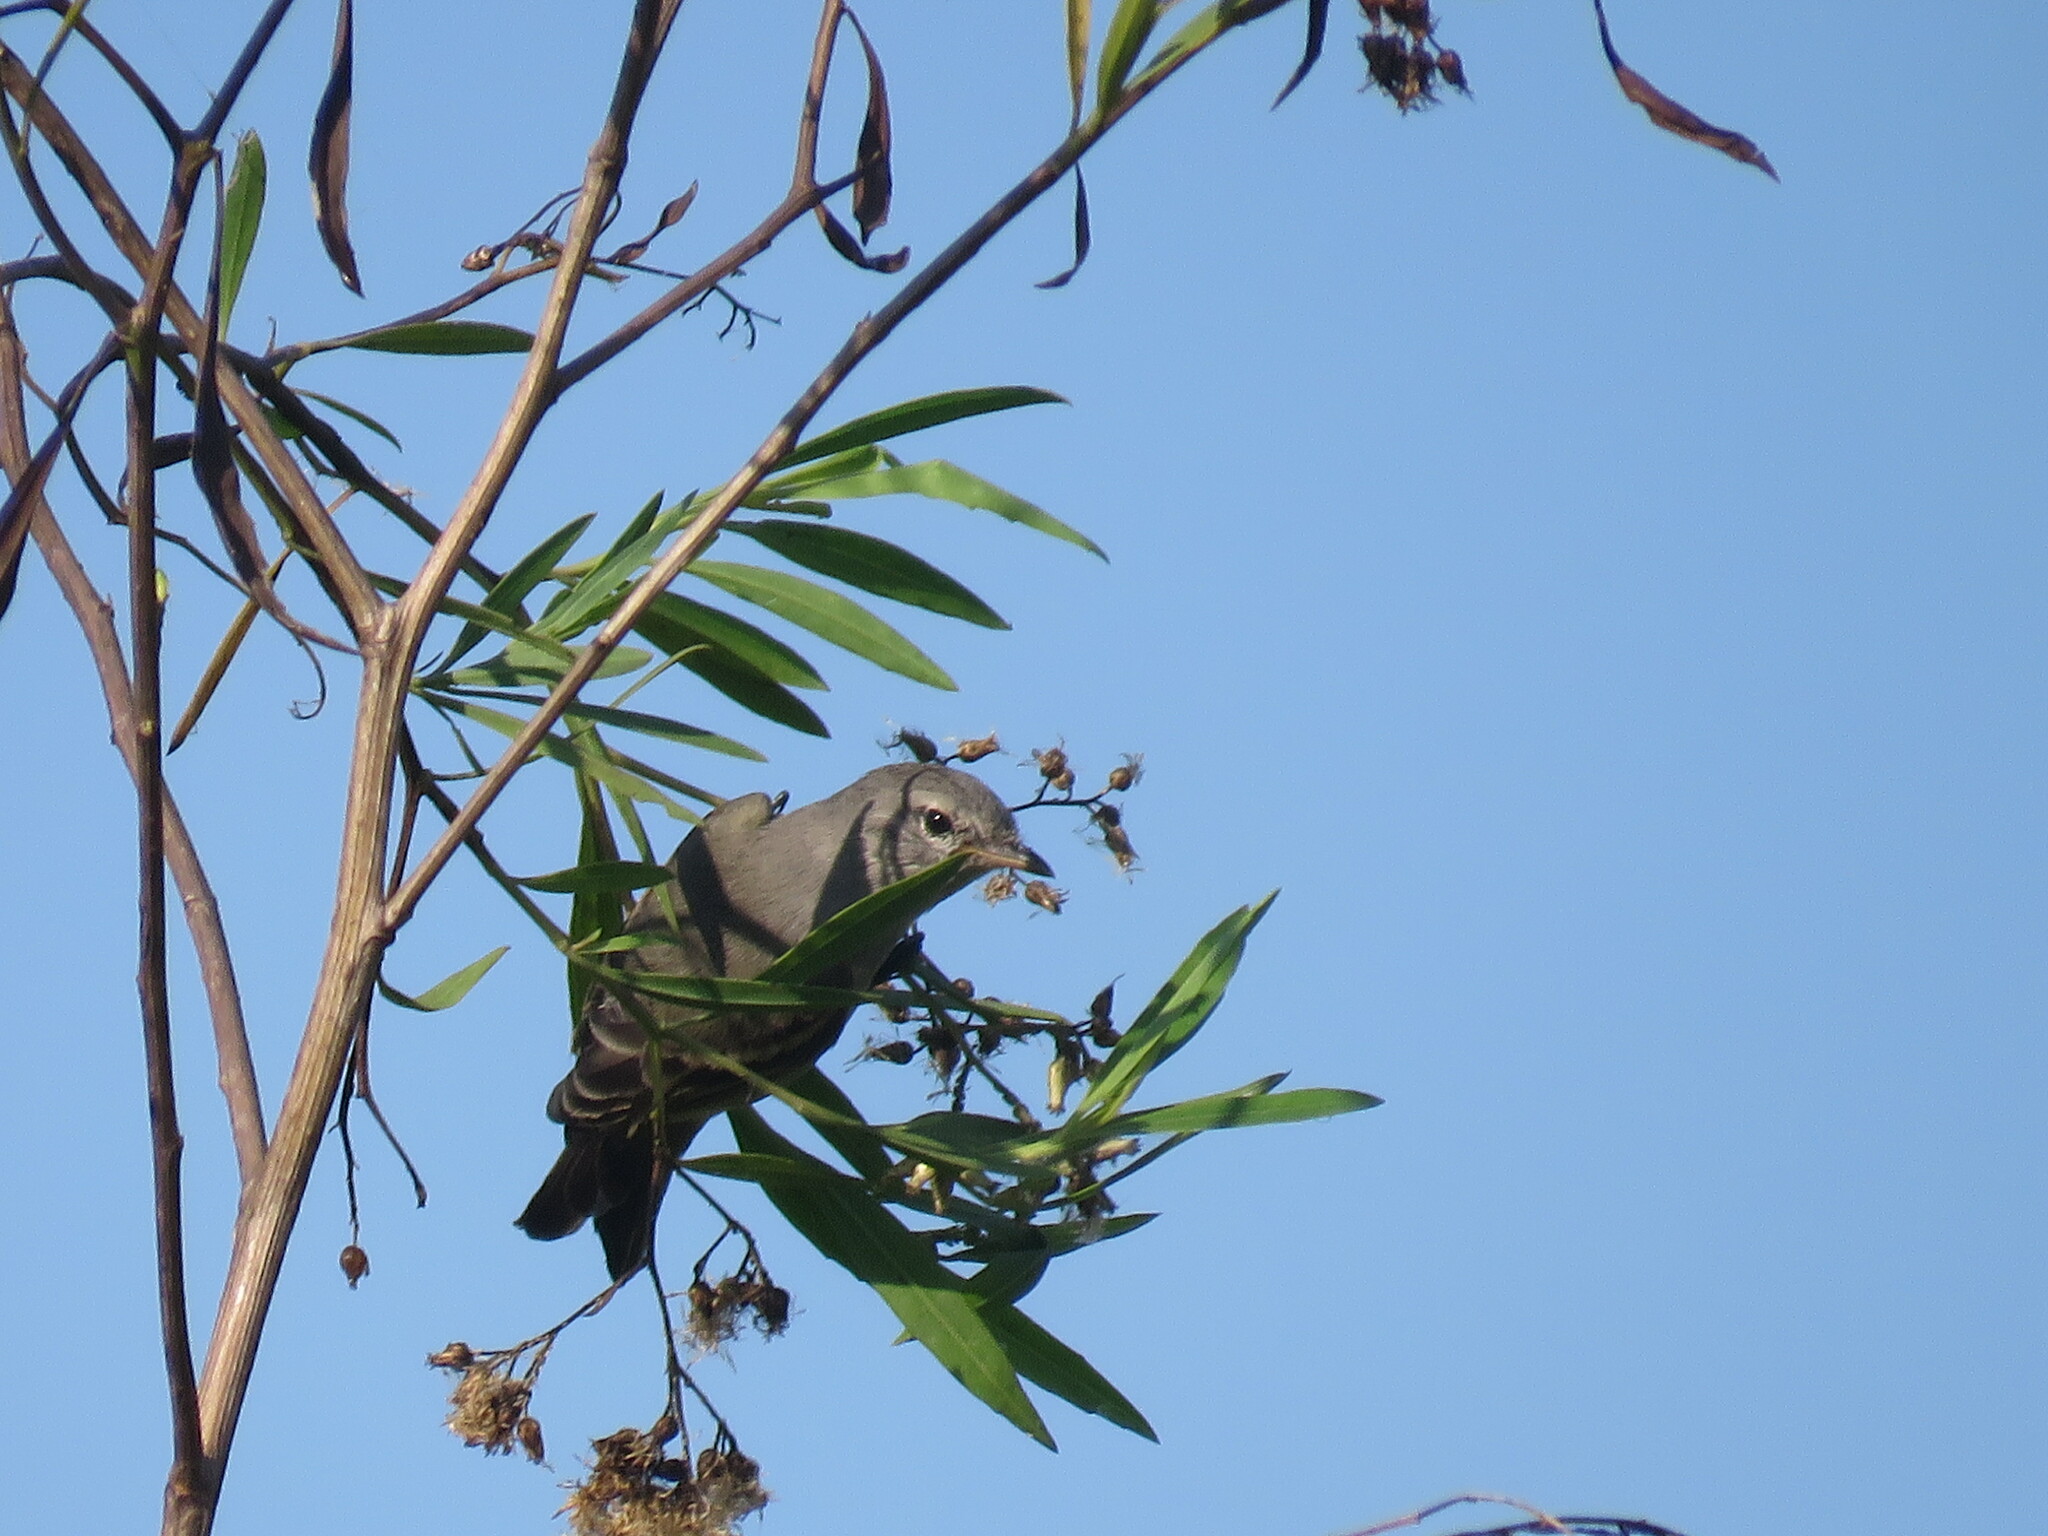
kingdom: Animalia
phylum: Chordata
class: Aves
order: Passeriformes
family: Tyrannidae
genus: Suiriri
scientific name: Suiriri suiriri
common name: Suiriri flycatcher
